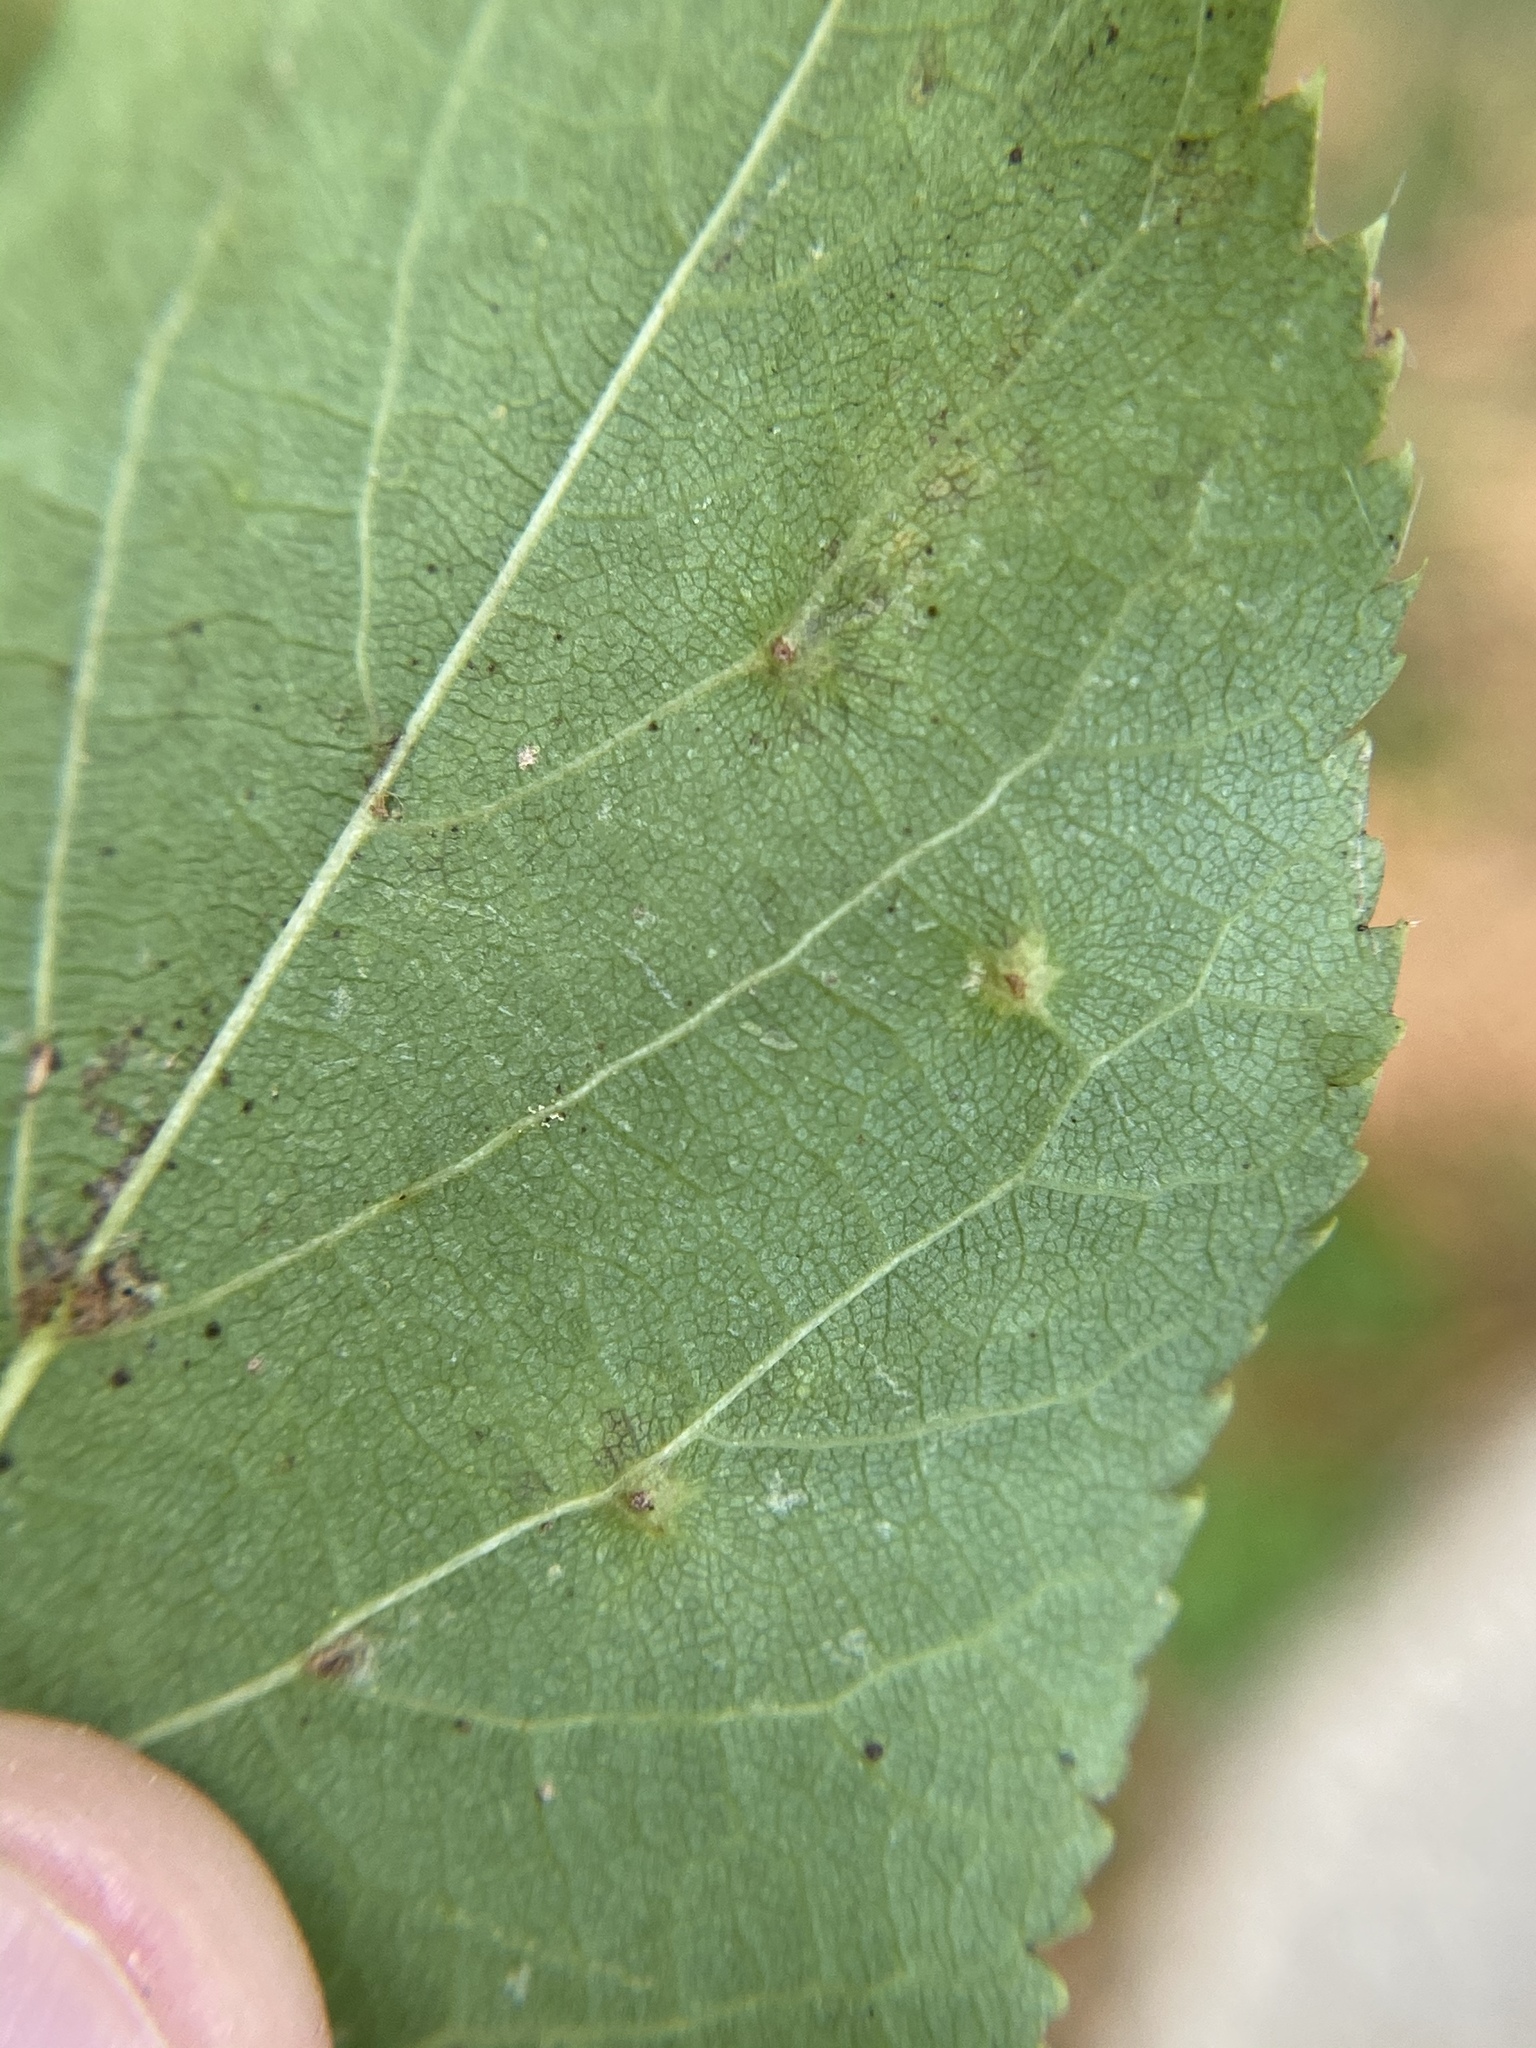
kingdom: Animalia
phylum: Arthropoda
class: Arachnida
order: Trombidiformes
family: Eriophyidae
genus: Eriophyes
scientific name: Eriophyes tiliae
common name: Red nail gall mite
